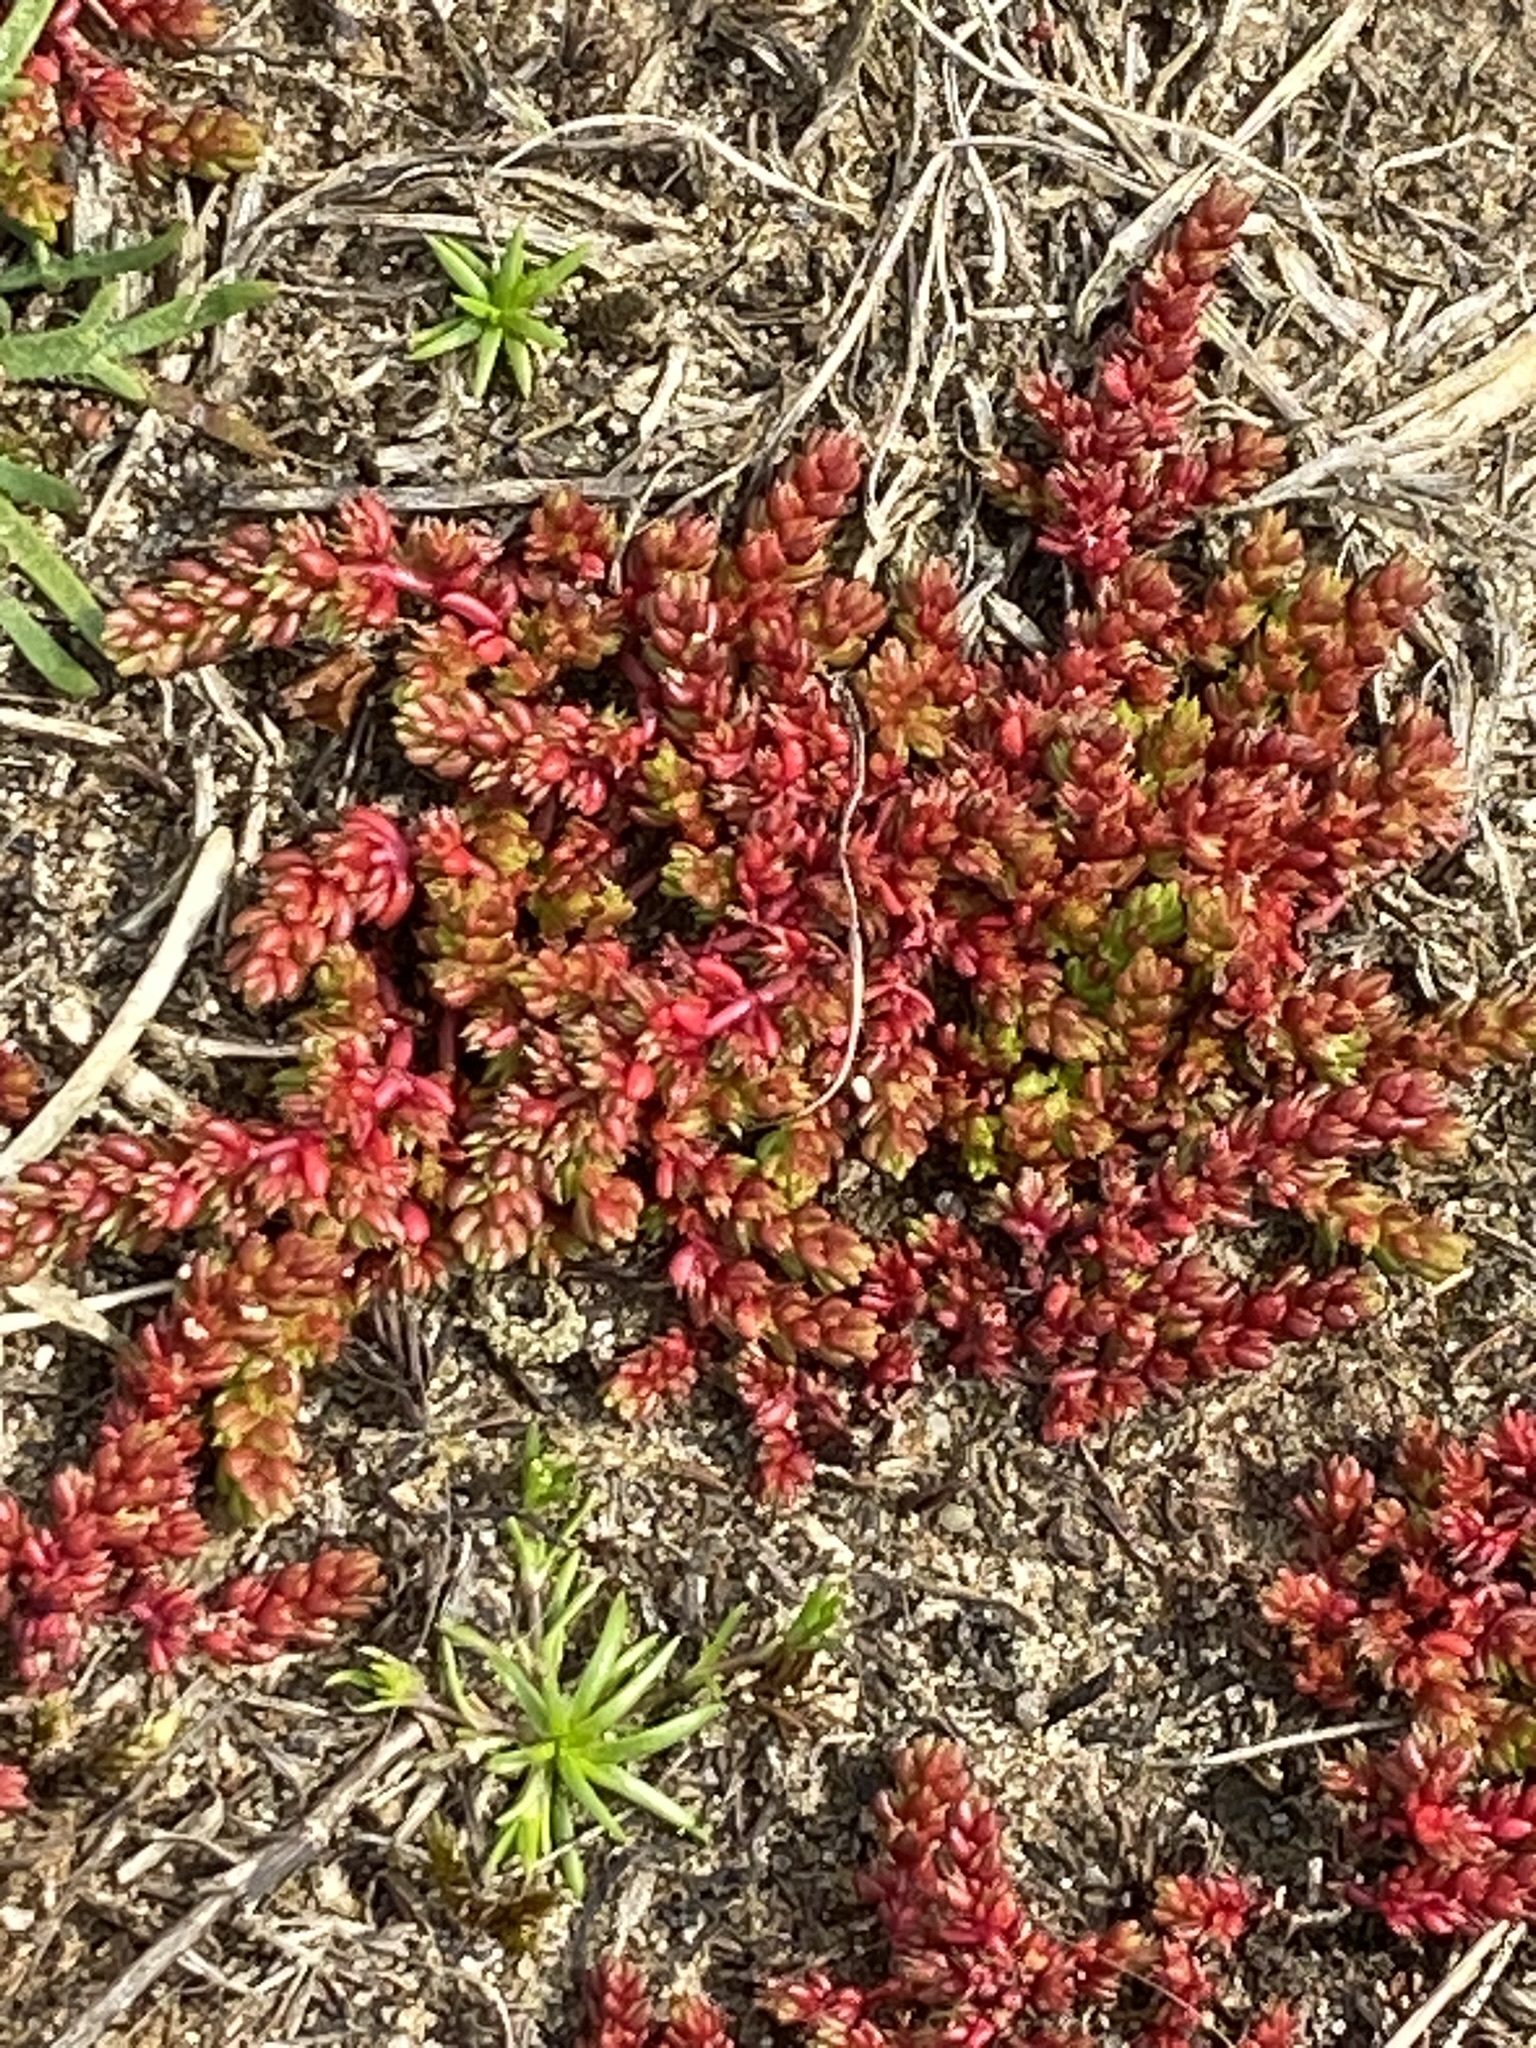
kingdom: Plantae
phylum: Tracheophyta
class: Magnoliopsida
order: Saxifragales
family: Crassulaceae
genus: Crassula
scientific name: Crassula tillaea
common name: Mossy stonecrop
